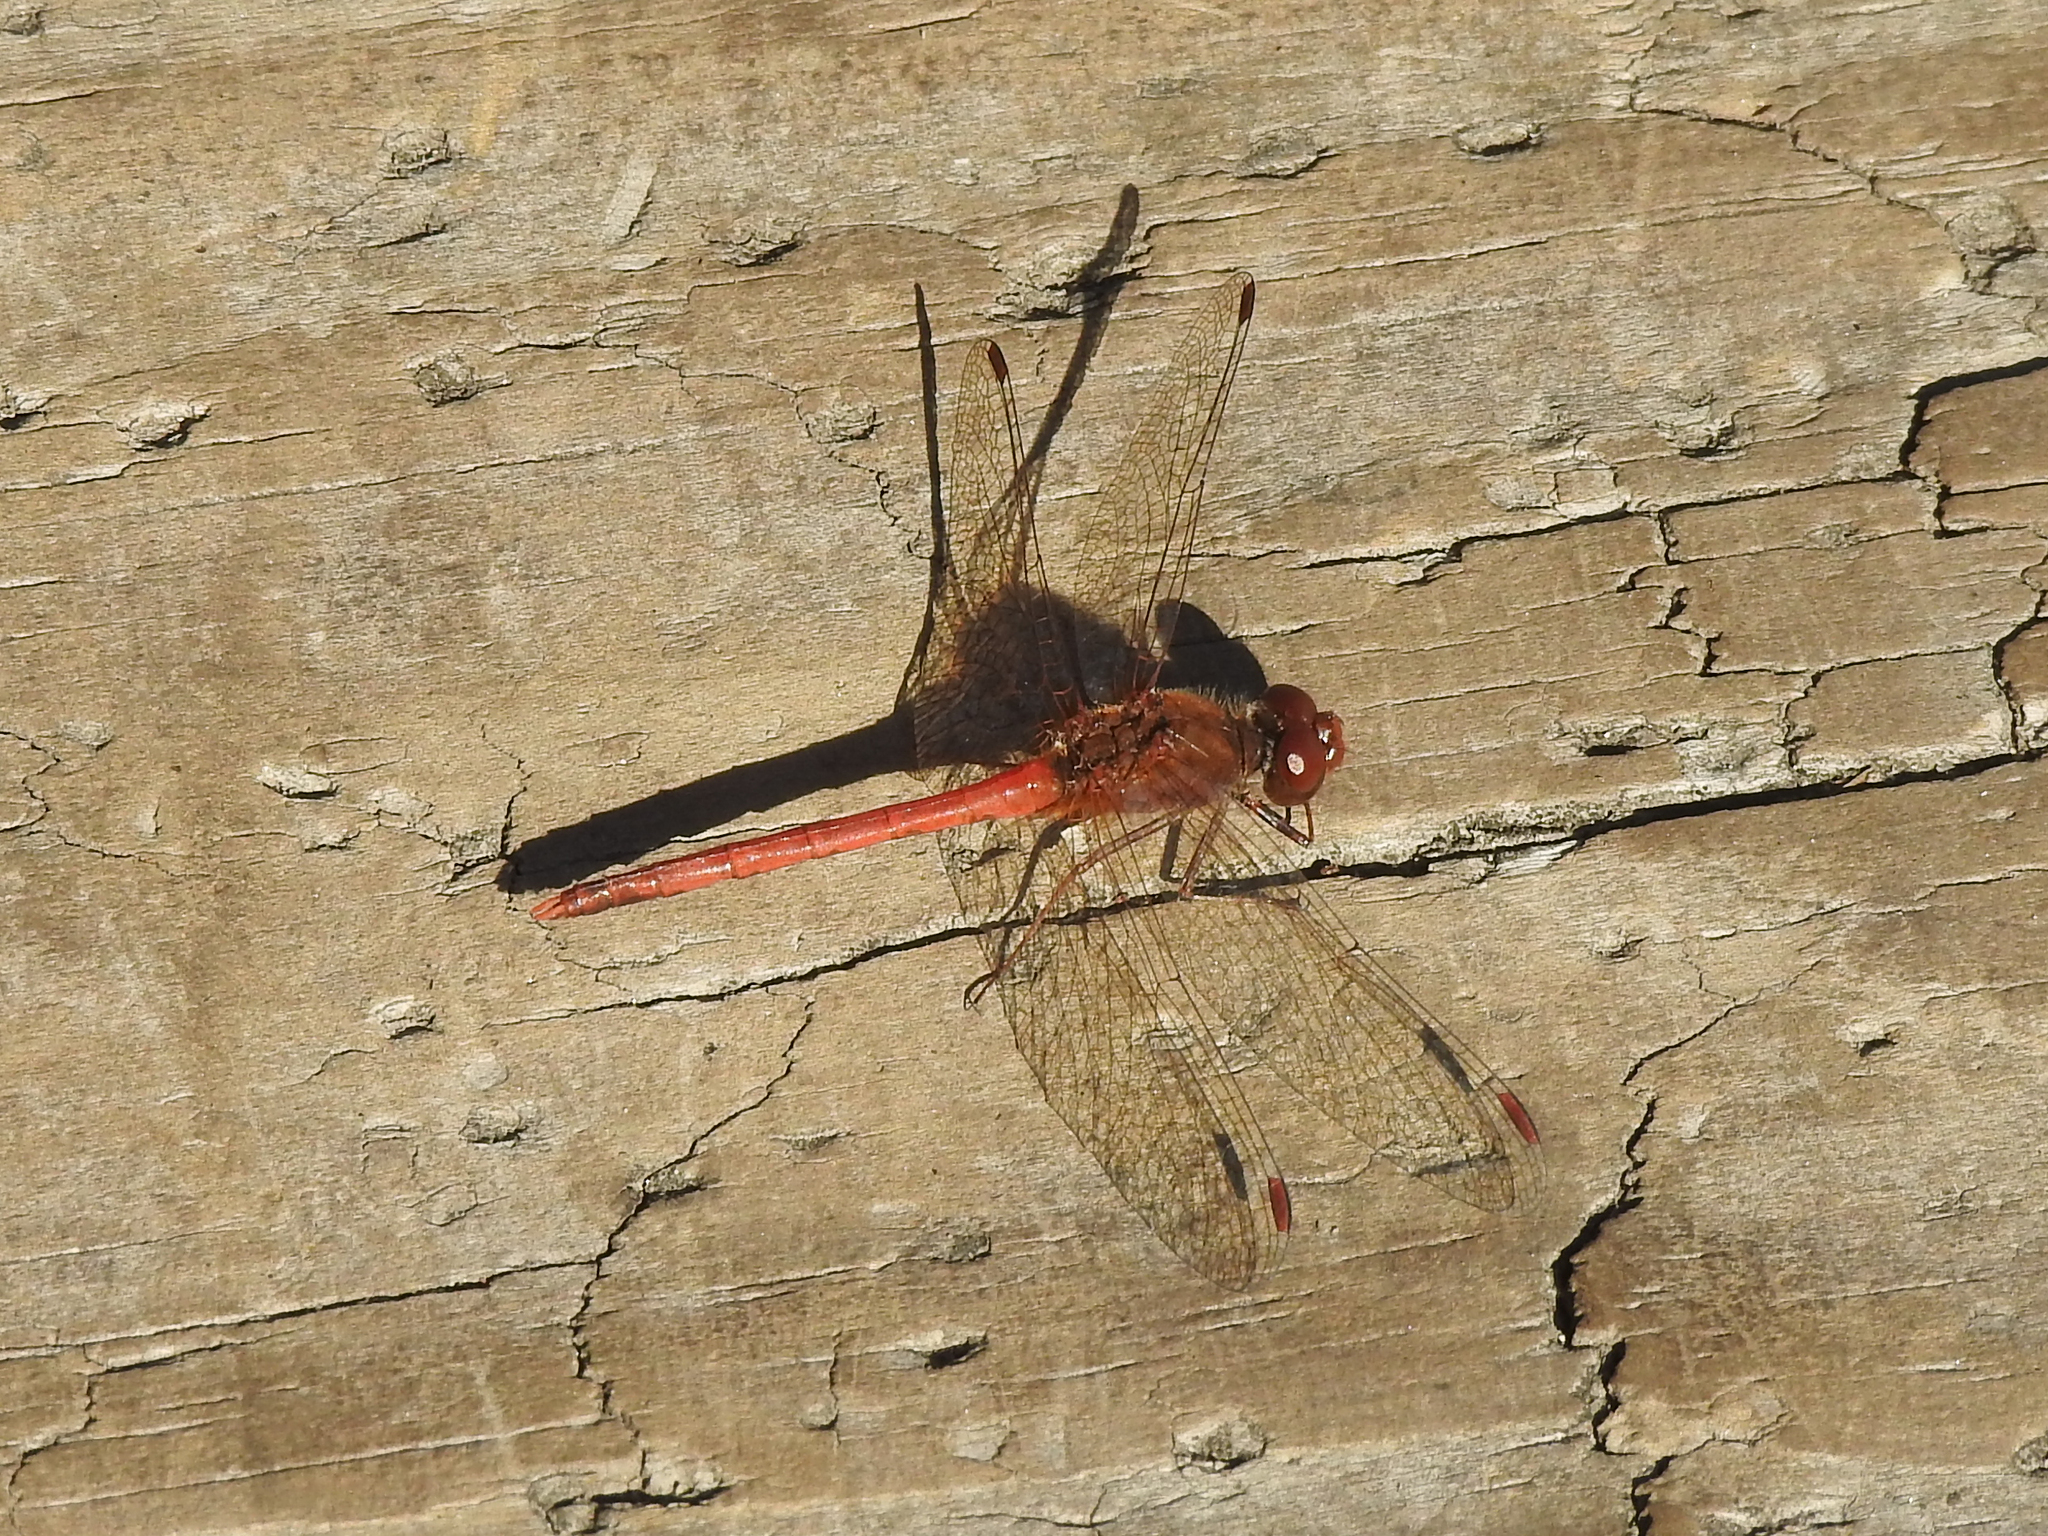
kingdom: Animalia
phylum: Arthropoda
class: Insecta
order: Odonata
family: Libellulidae
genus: Sympetrum
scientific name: Sympetrum vicinum
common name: Autumn meadowhawk
